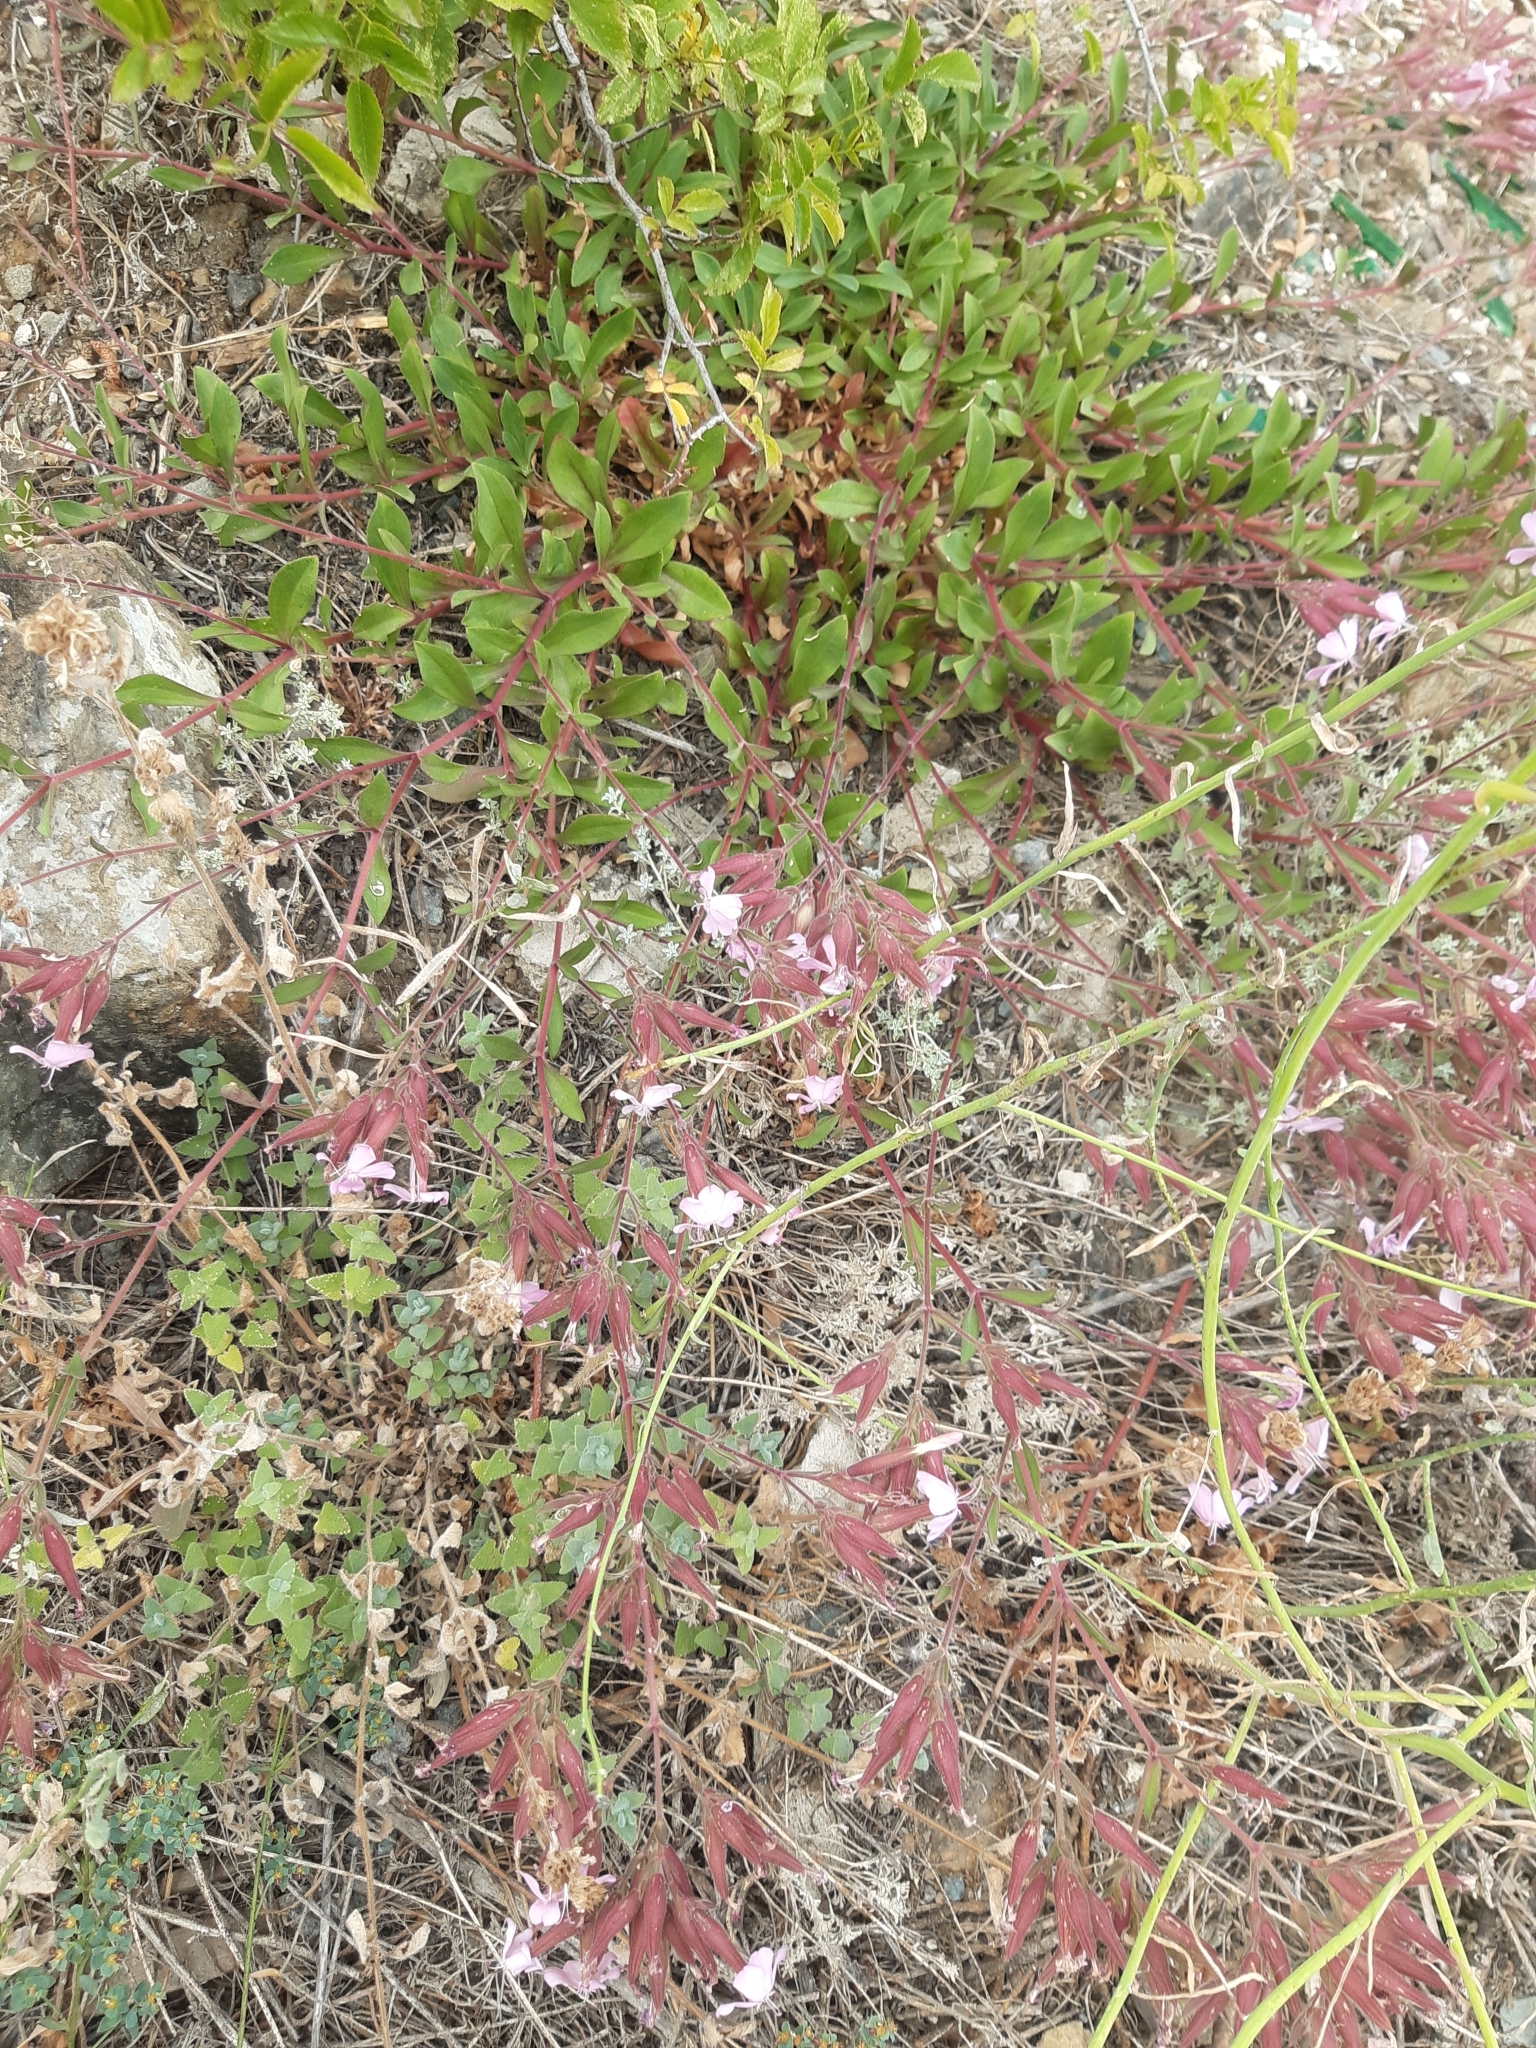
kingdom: Plantae
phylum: Tracheophyta
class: Magnoliopsida
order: Caryophyllales
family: Caryophyllaceae
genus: Silene
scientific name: Silene aegyptiaca
